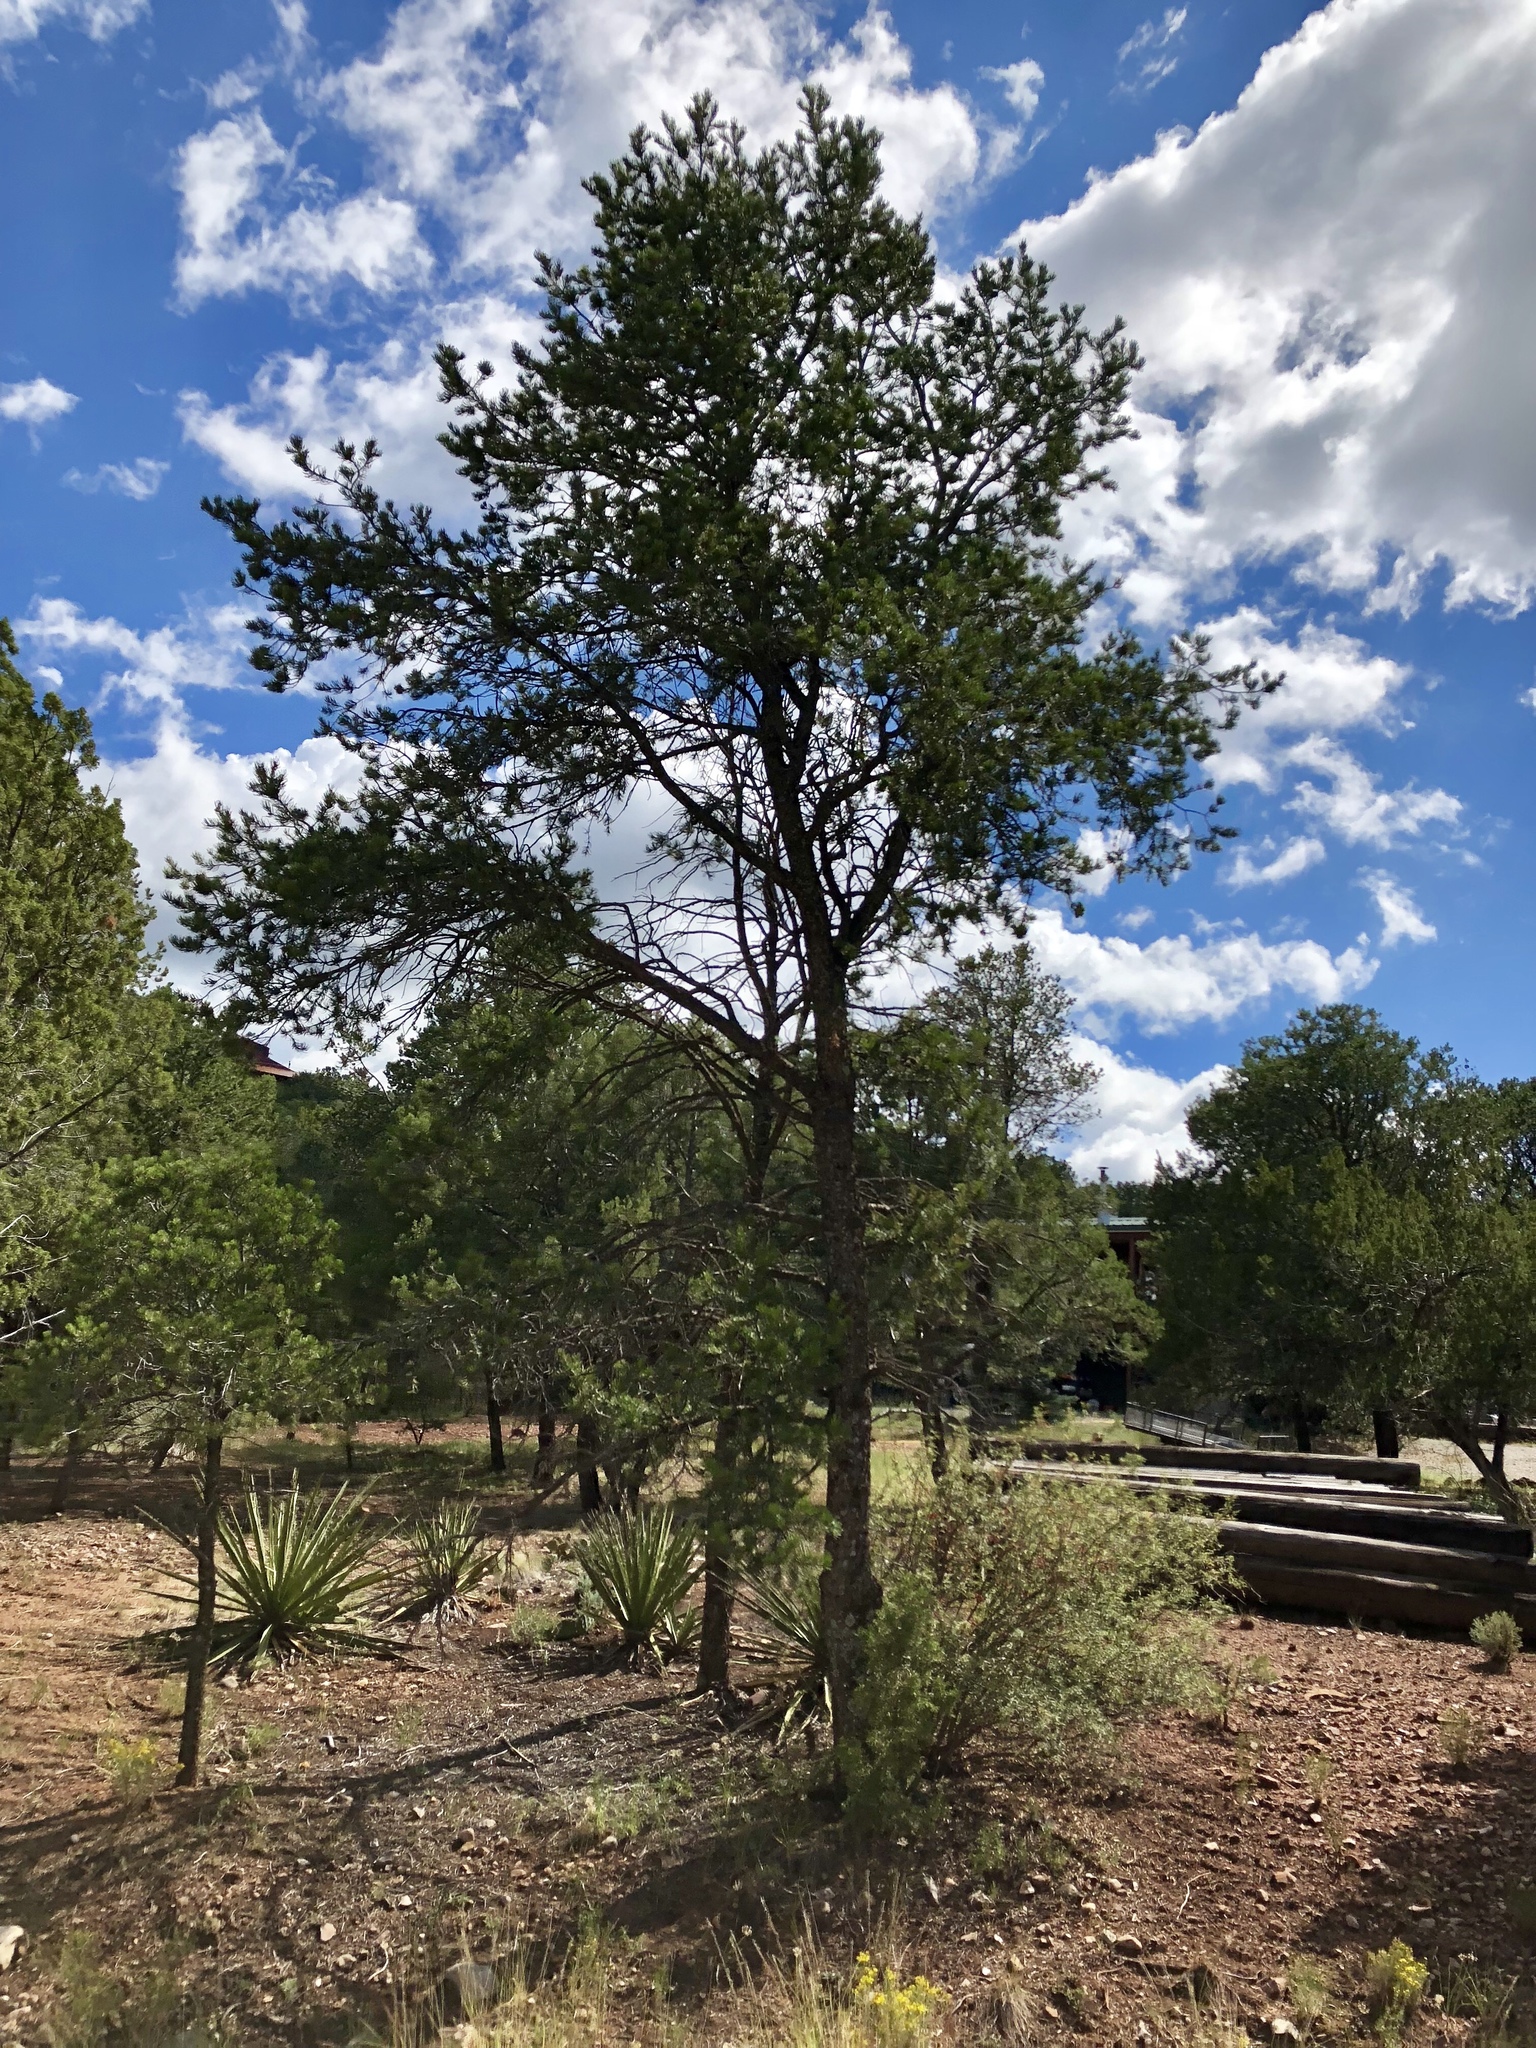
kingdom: Plantae
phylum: Tracheophyta
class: Pinopsida
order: Pinales
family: Pinaceae
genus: Pinus
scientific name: Pinus edulis
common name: Colorado pinyon
